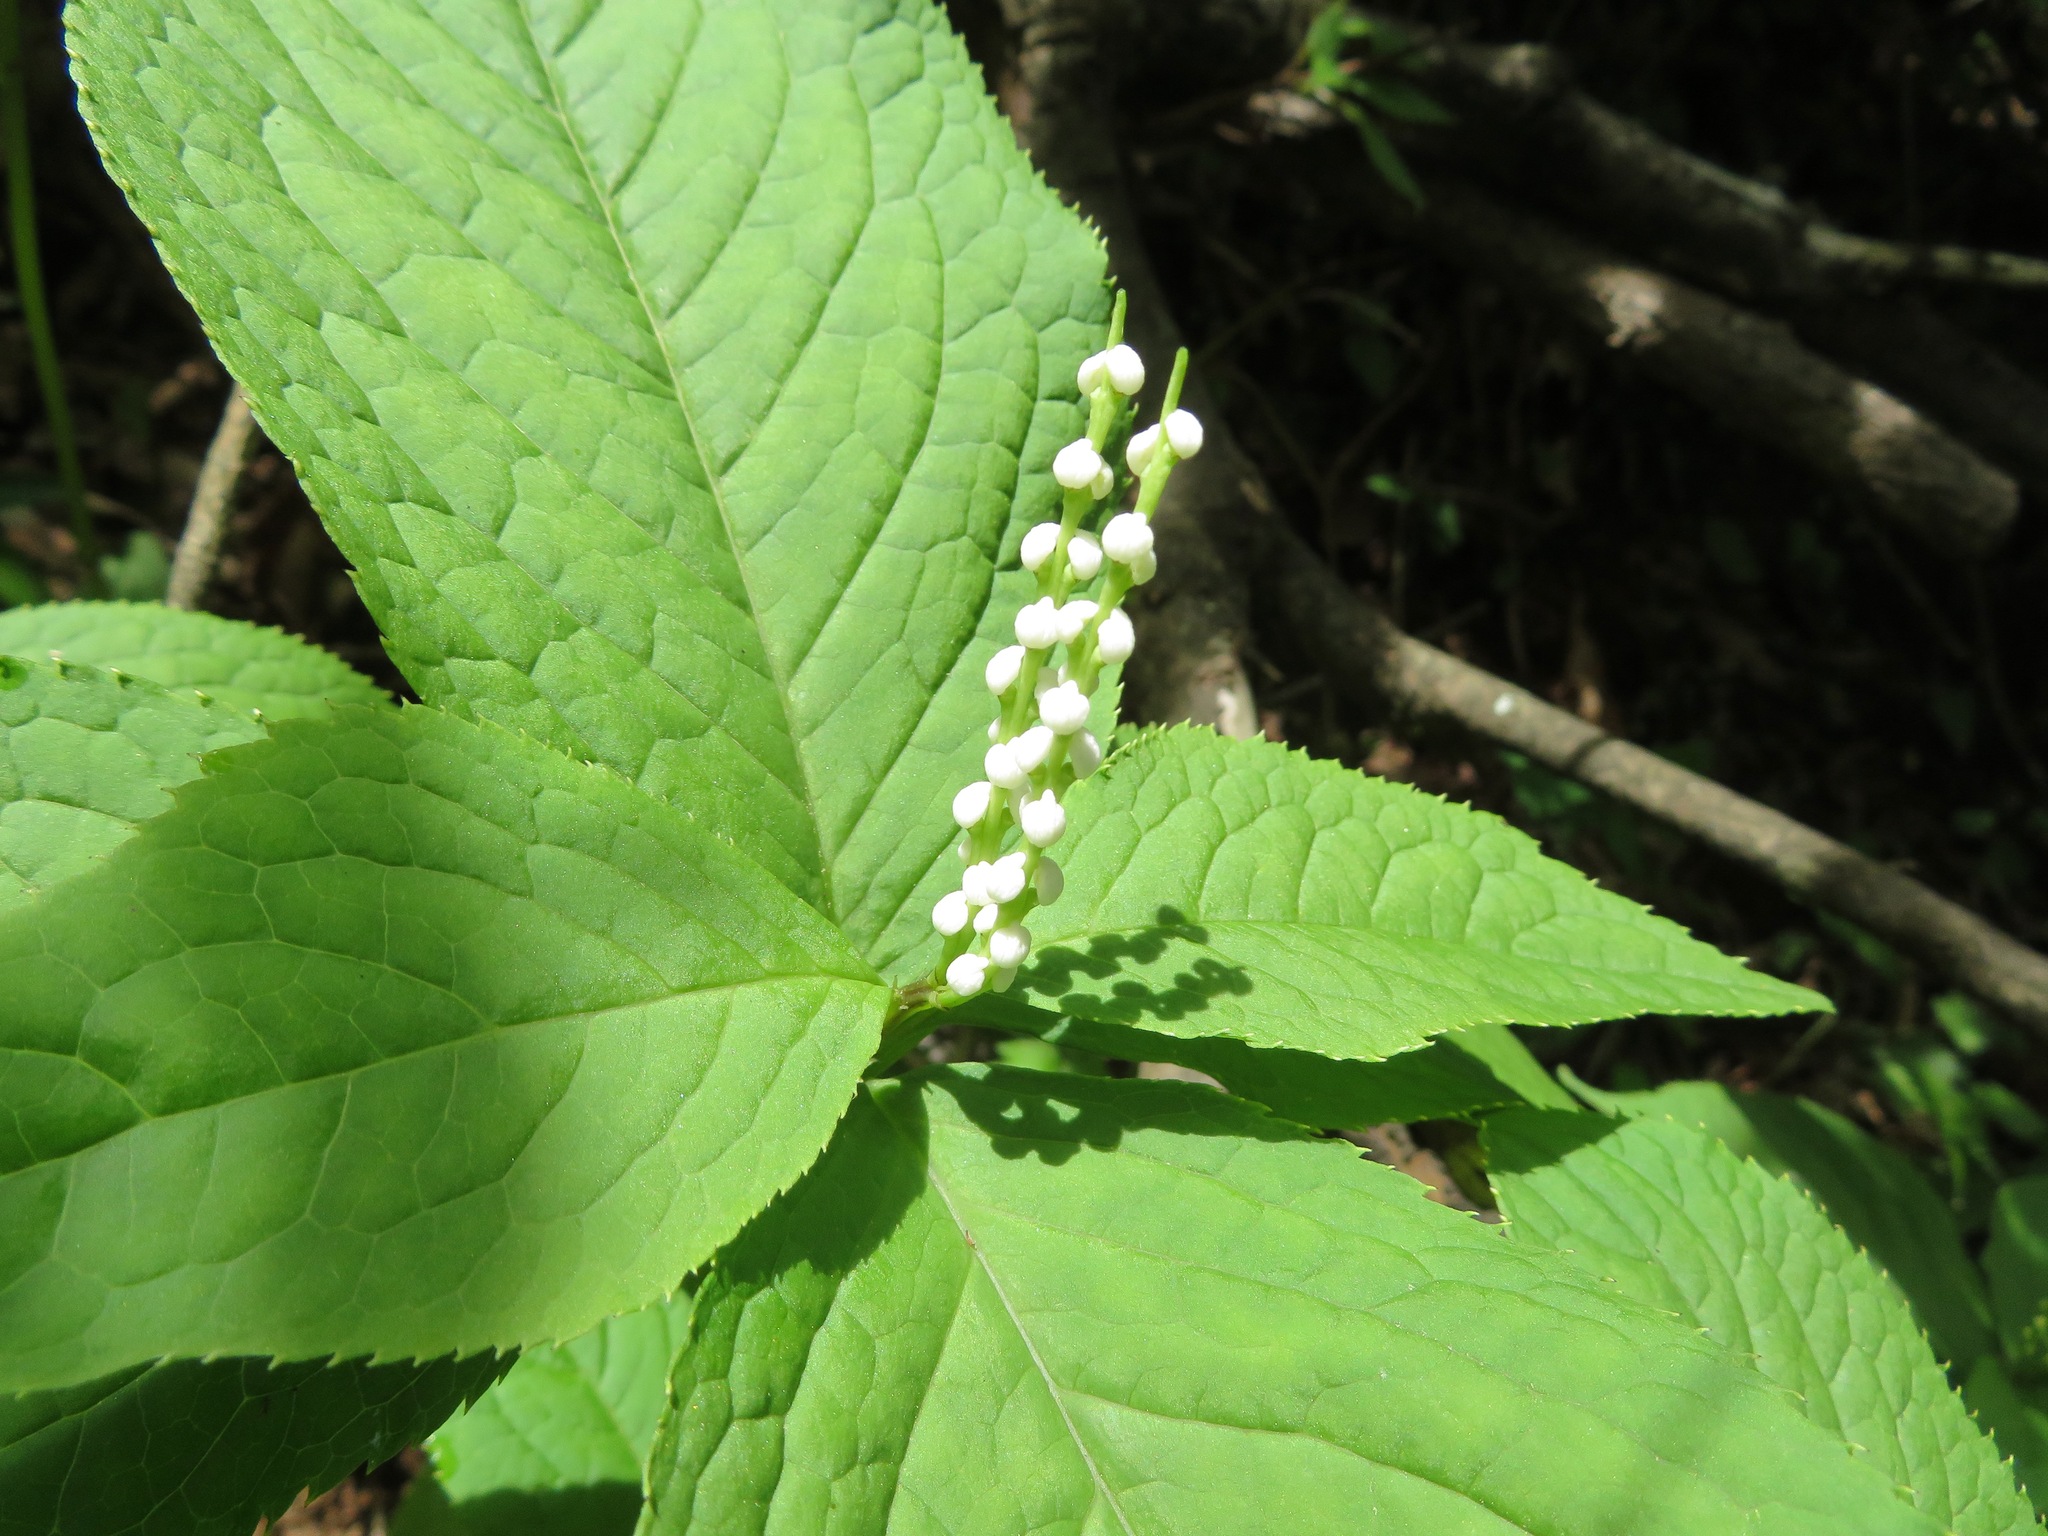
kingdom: Plantae
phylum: Tracheophyta
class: Magnoliopsida
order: Chloranthales
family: Chloranthaceae
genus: Chloranthus
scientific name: Chloranthus serratus
